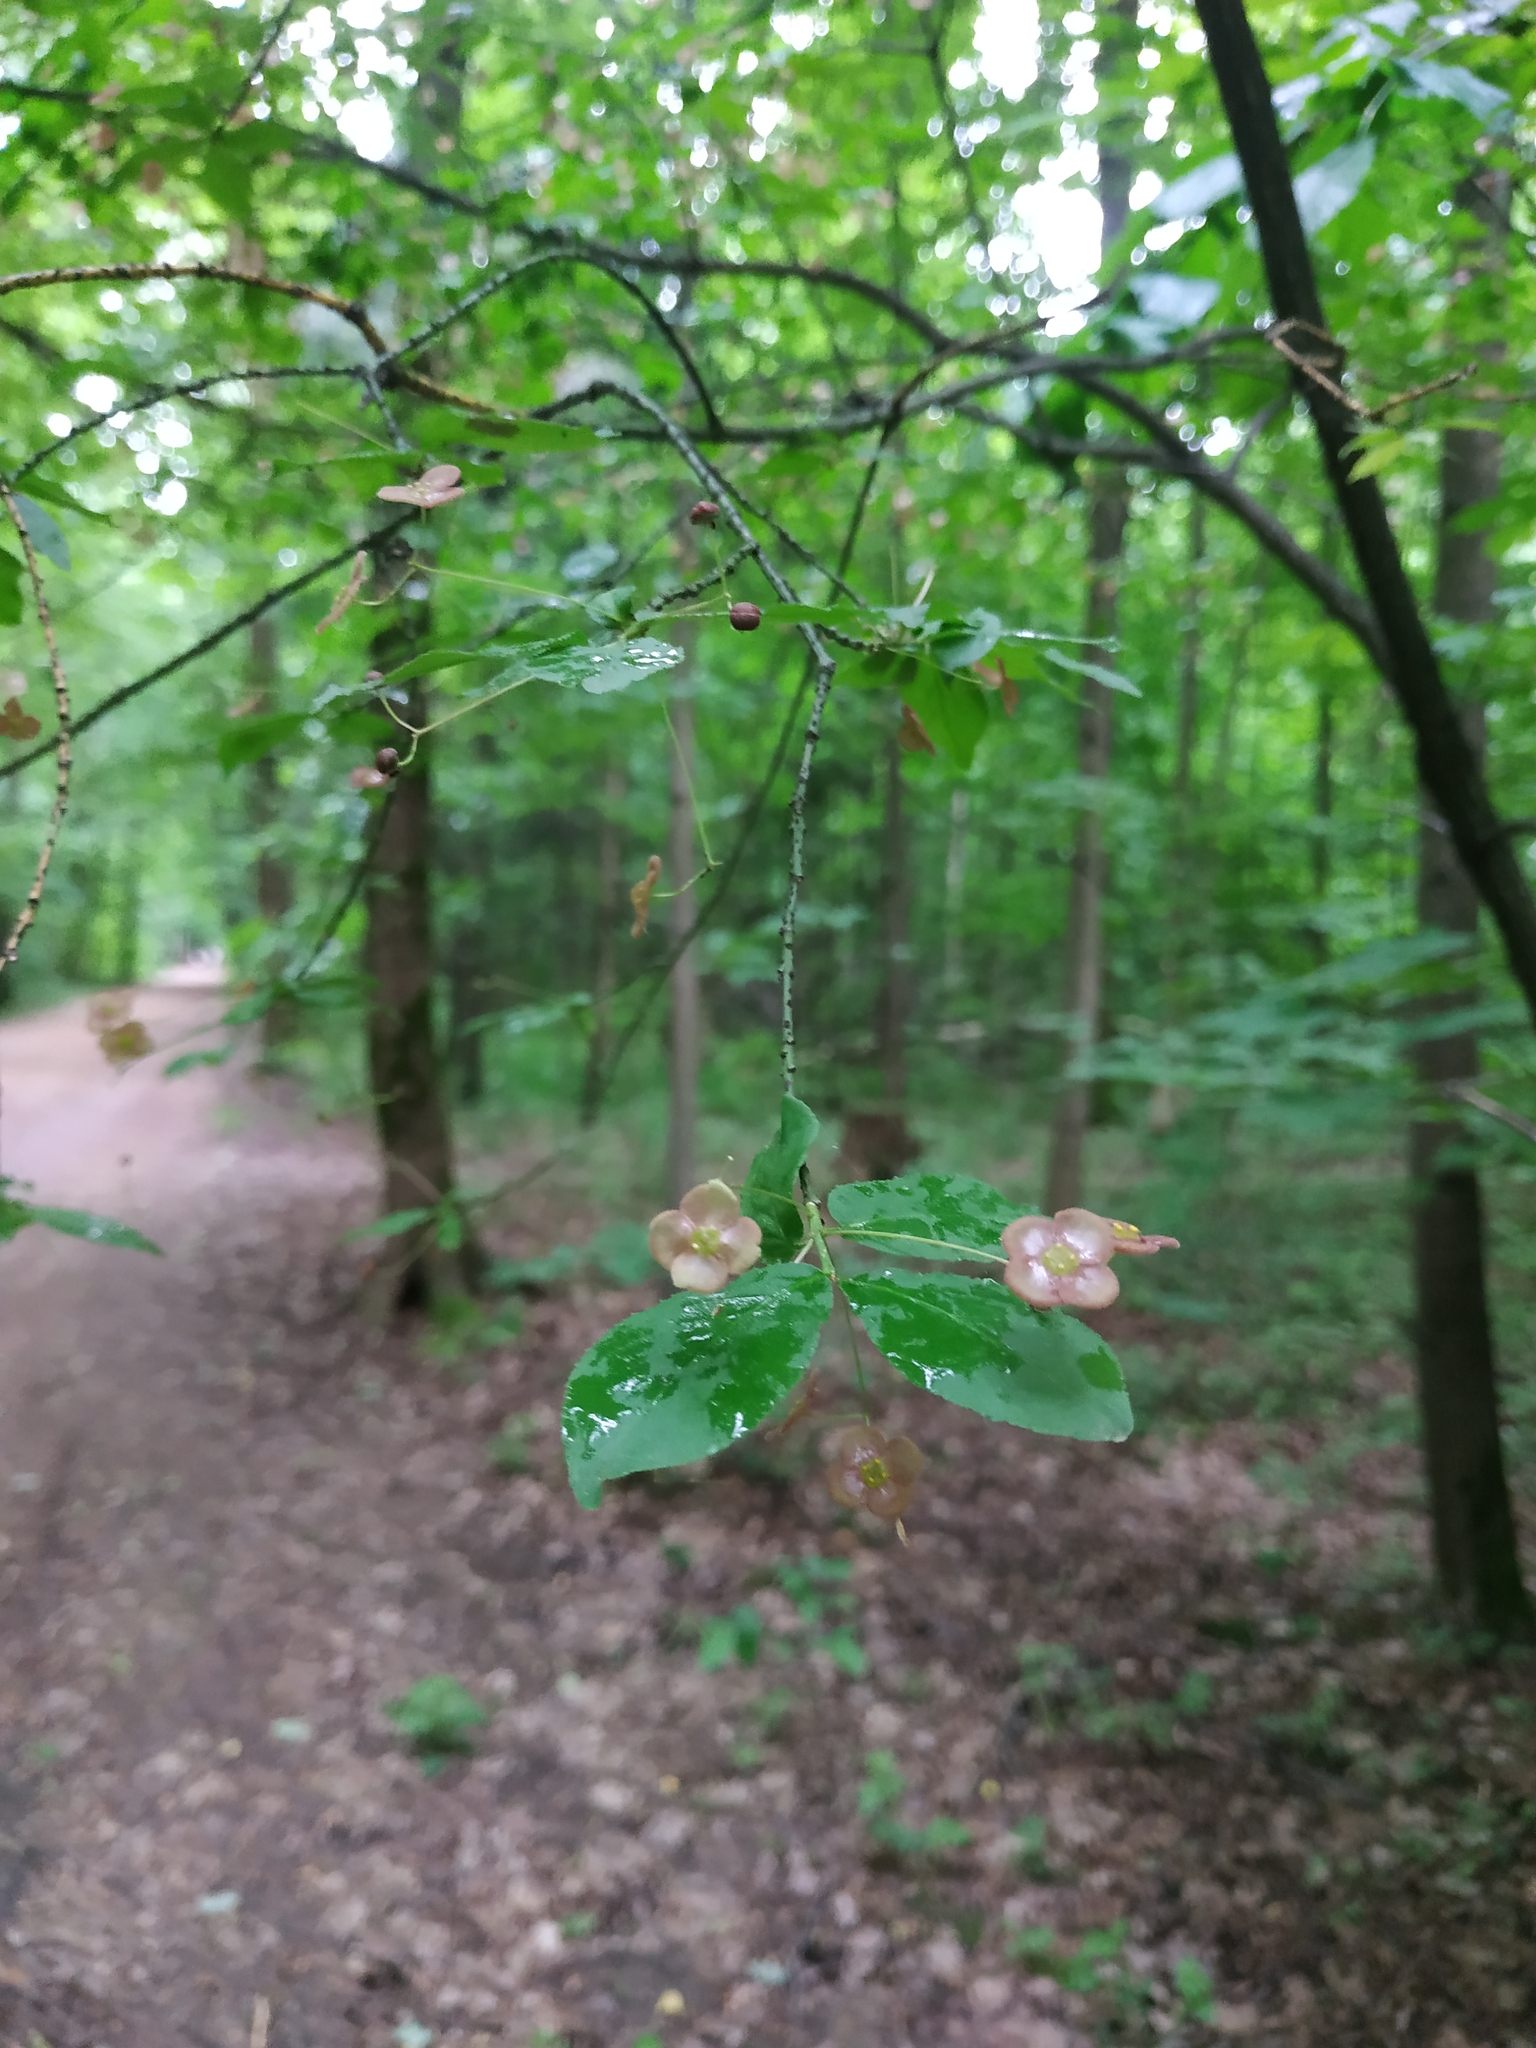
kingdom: Plantae
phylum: Tracheophyta
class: Magnoliopsida
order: Celastrales
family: Celastraceae
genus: Euonymus
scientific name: Euonymus verrucosus
